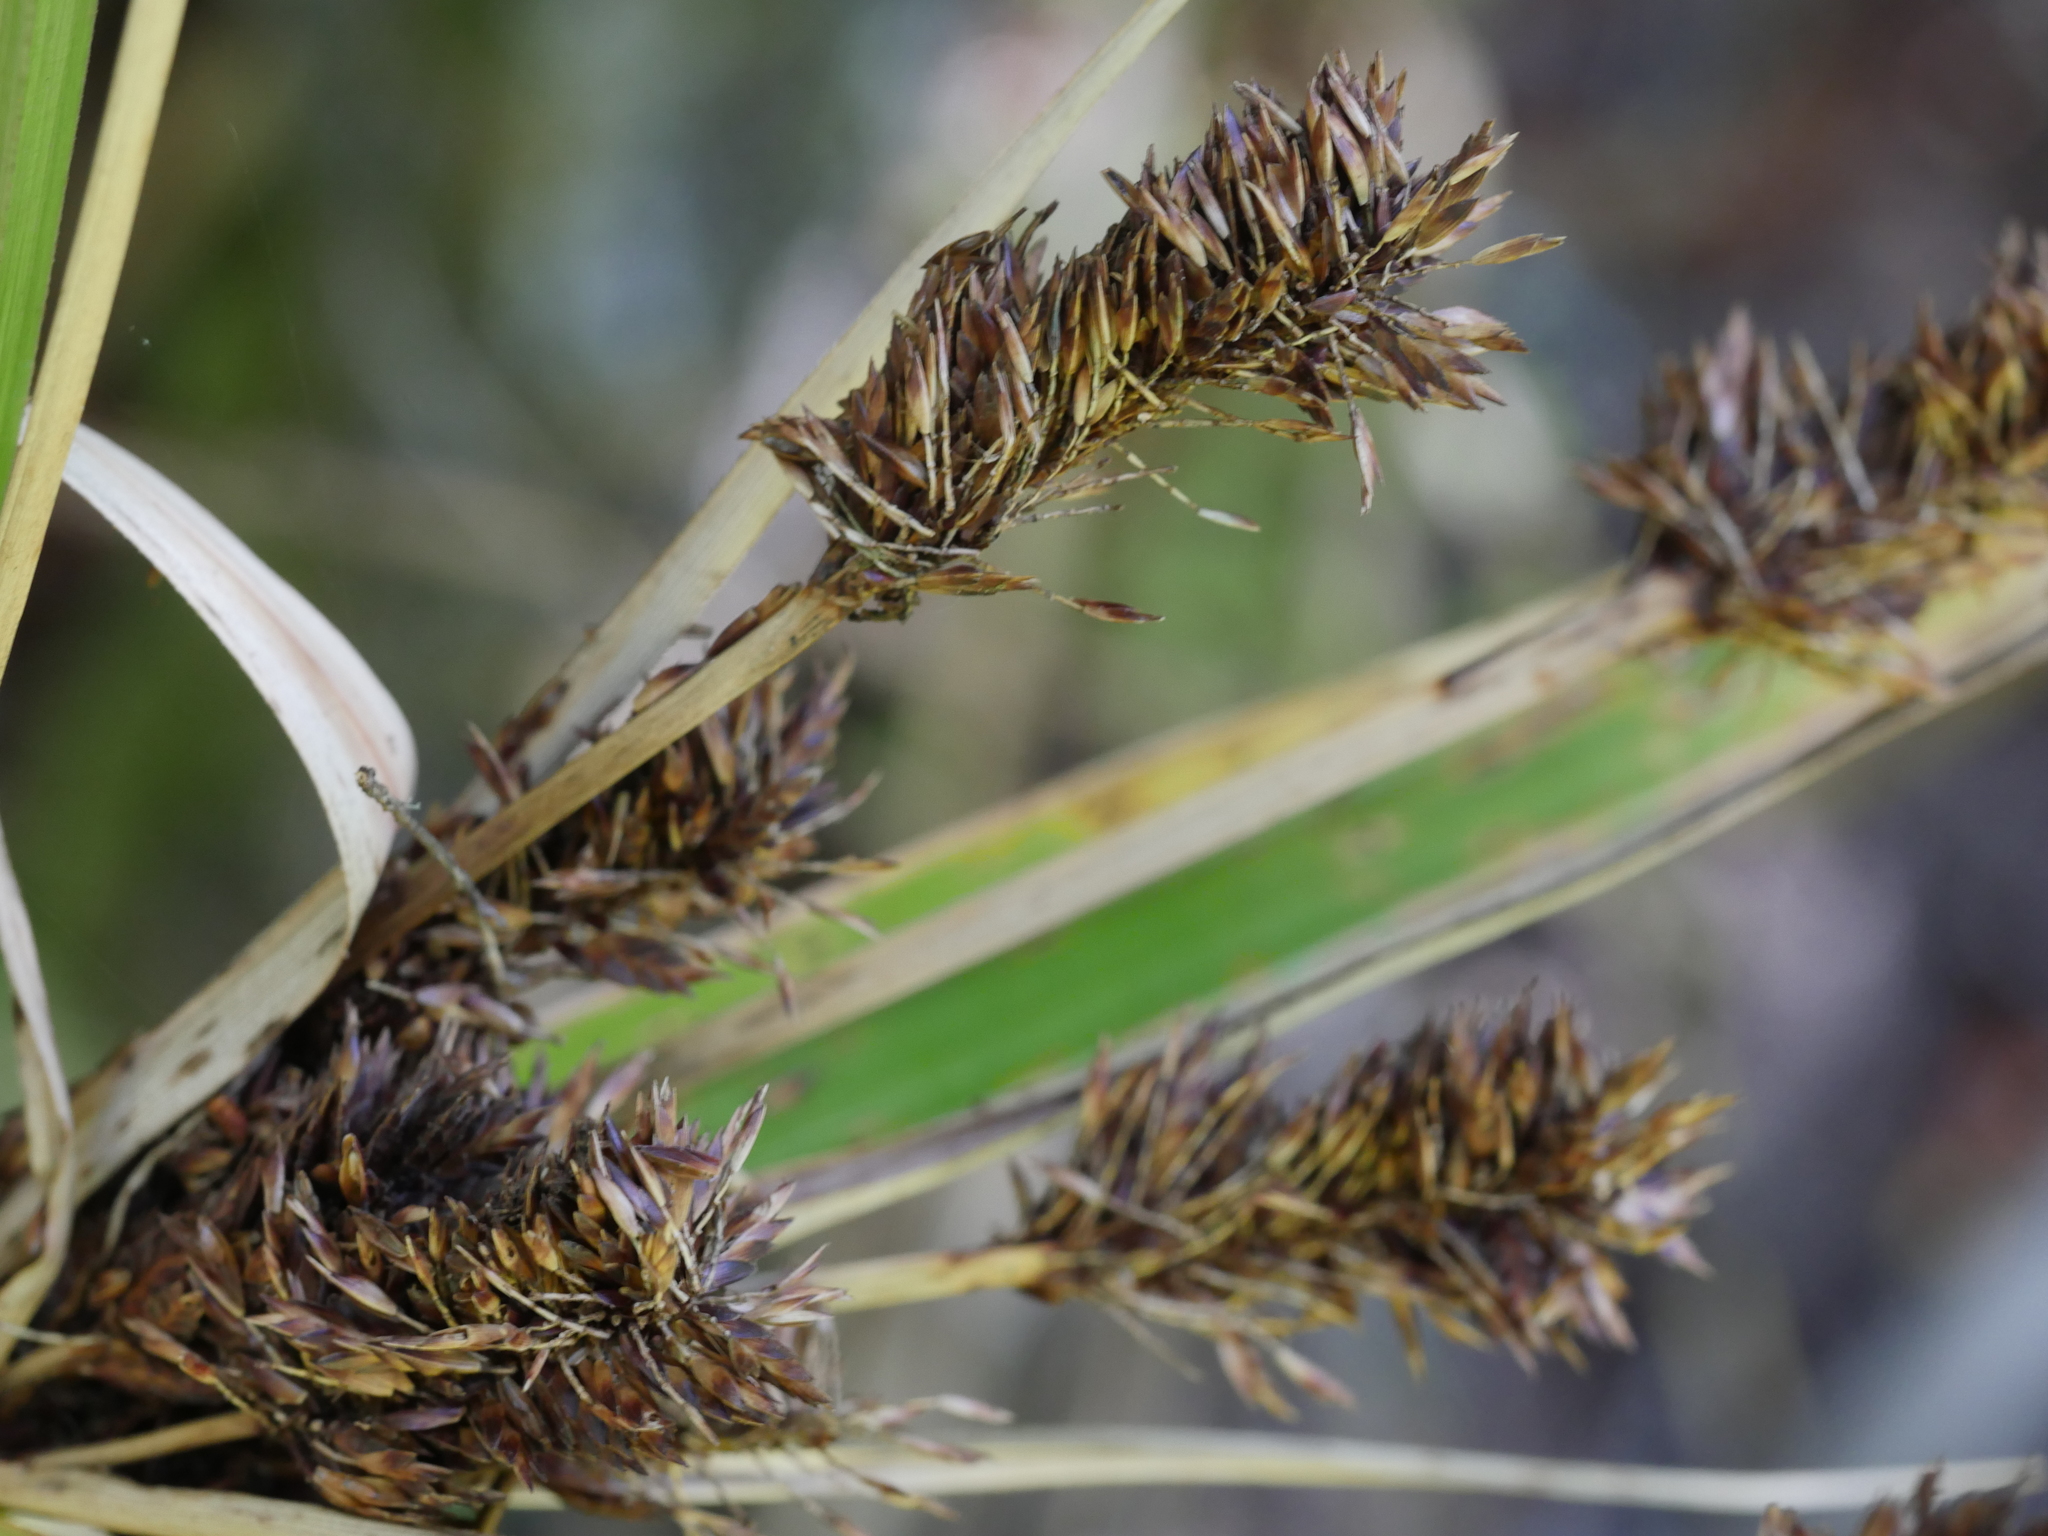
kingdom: Plantae
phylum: Tracheophyta
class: Liliopsida
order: Poales
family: Cyperaceae
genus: Cyperus
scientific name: Cyperus ustulatus
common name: Giant umbrella-sedge
